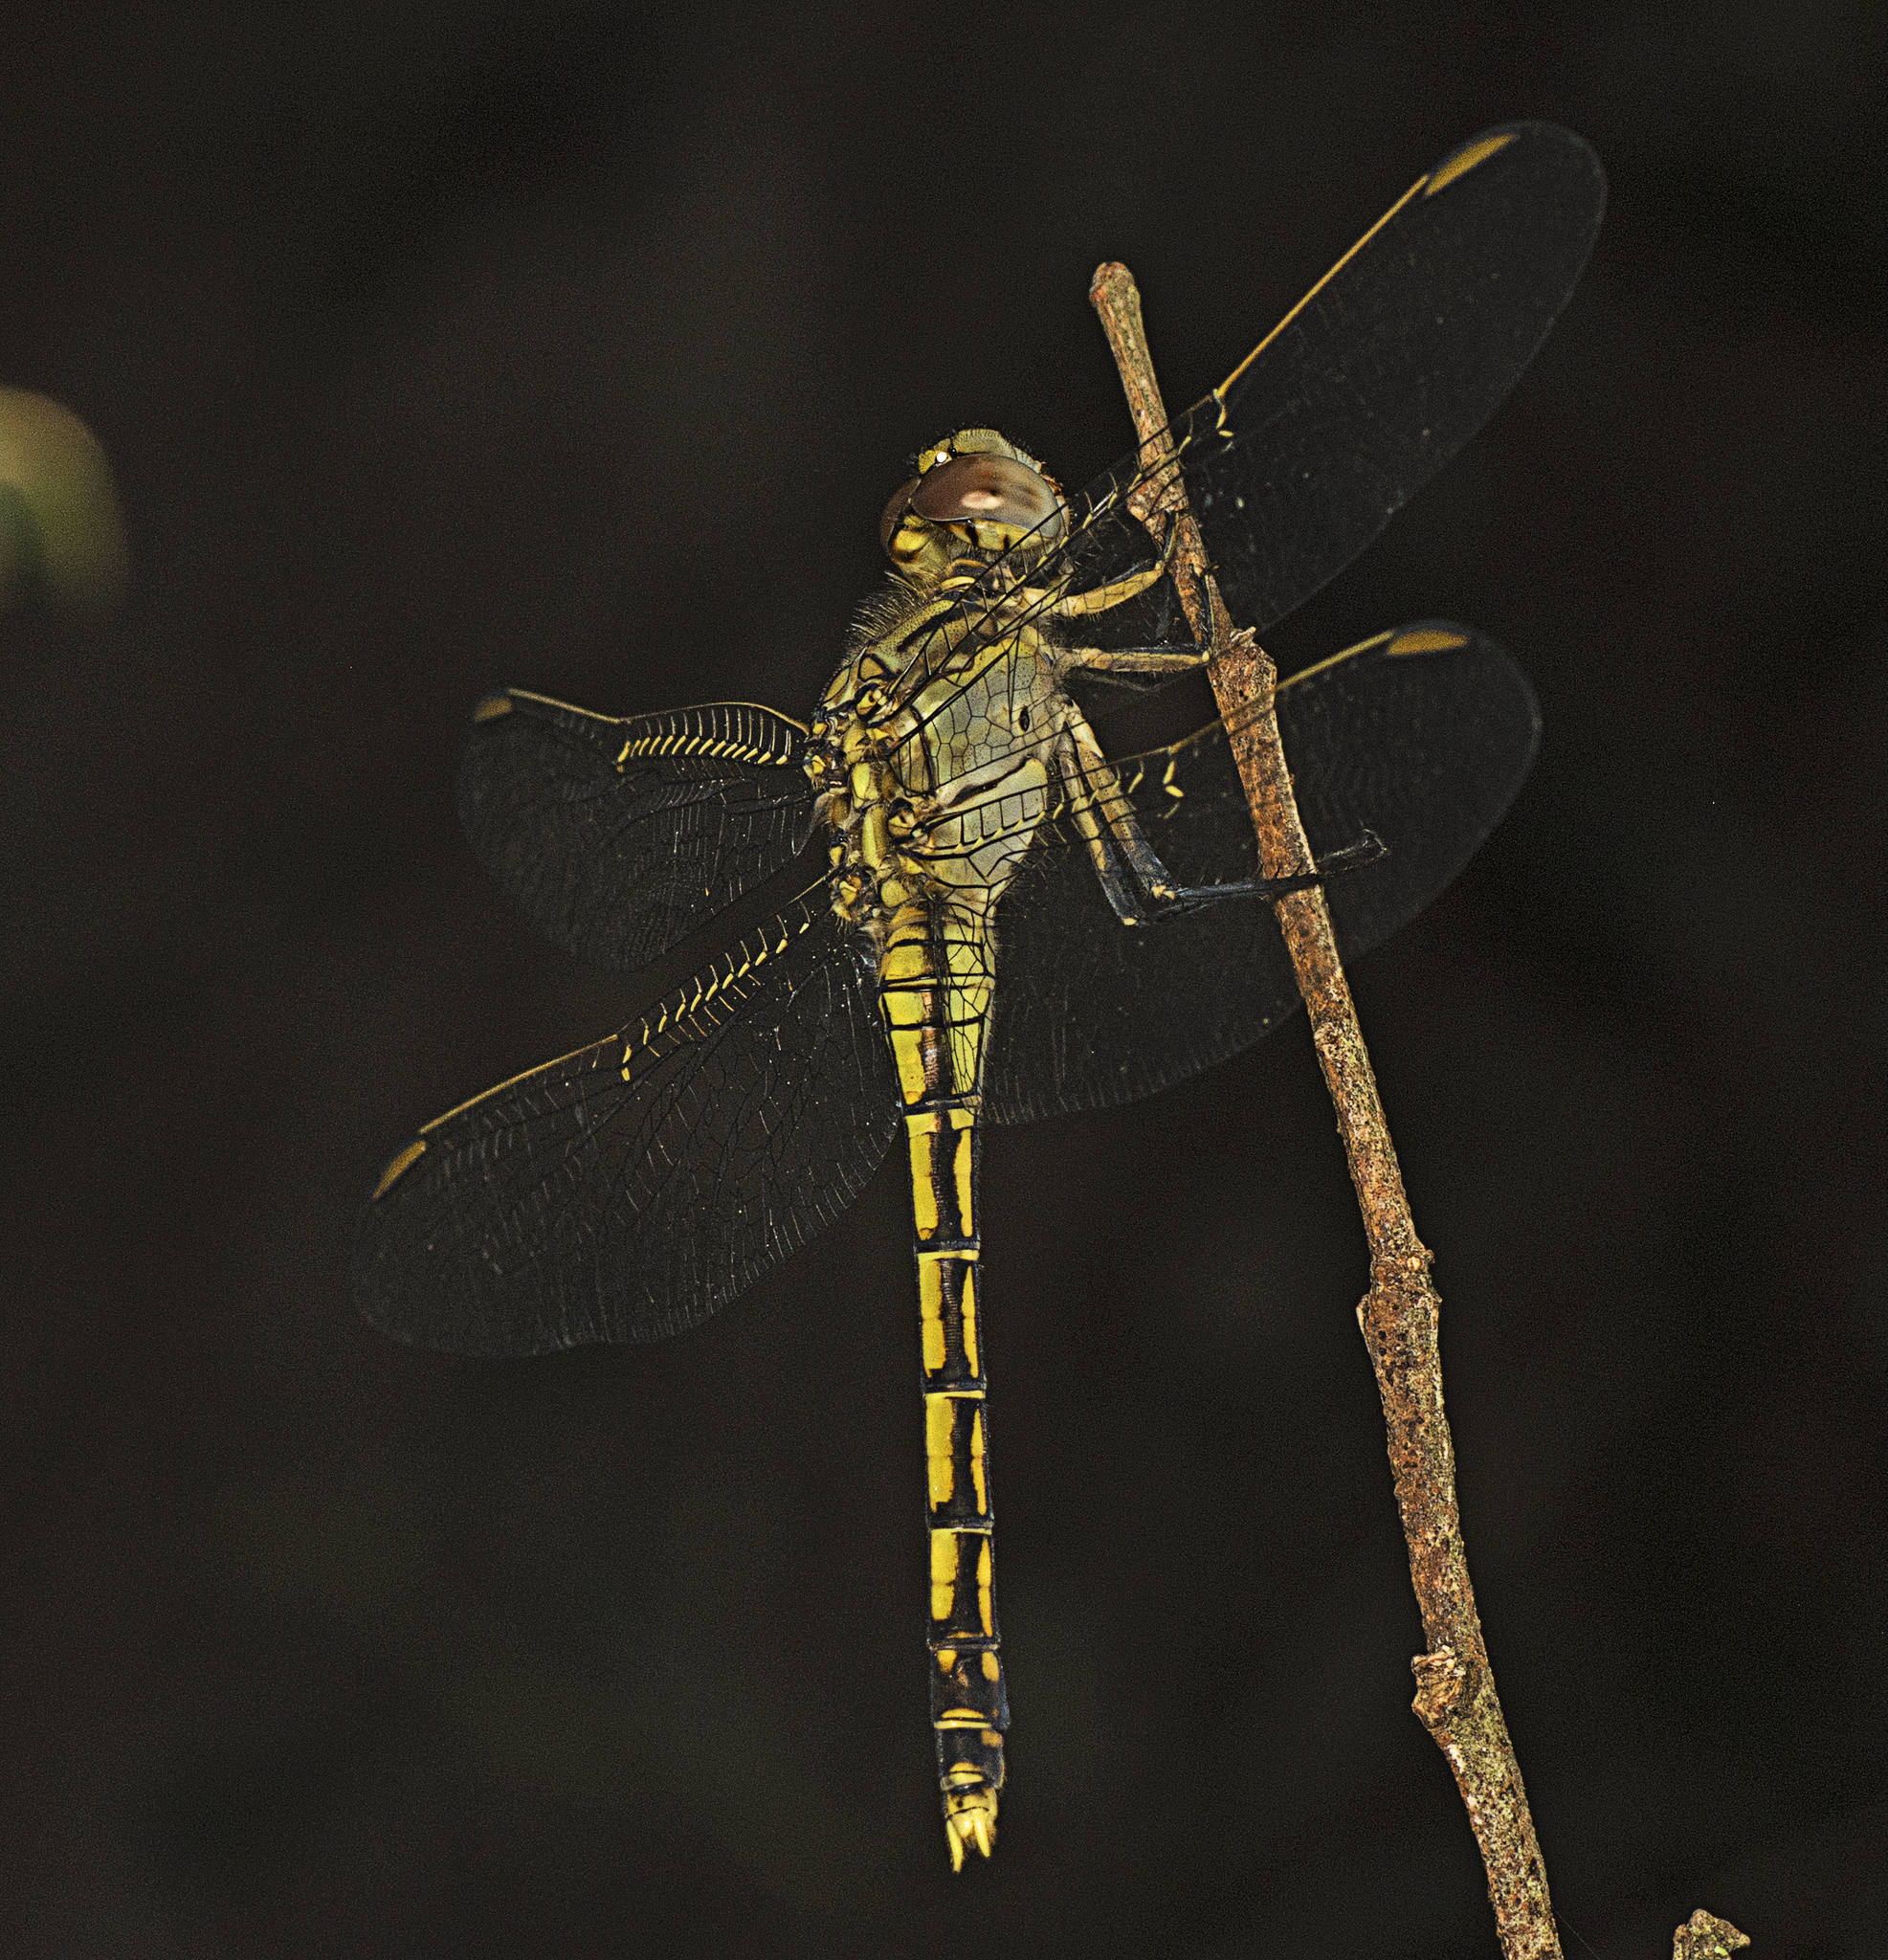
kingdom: Animalia
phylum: Arthropoda
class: Insecta
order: Odonata
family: Libellulidae
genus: Orthetrum
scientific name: Orthetrum caledonicum
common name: Blue skimmer
